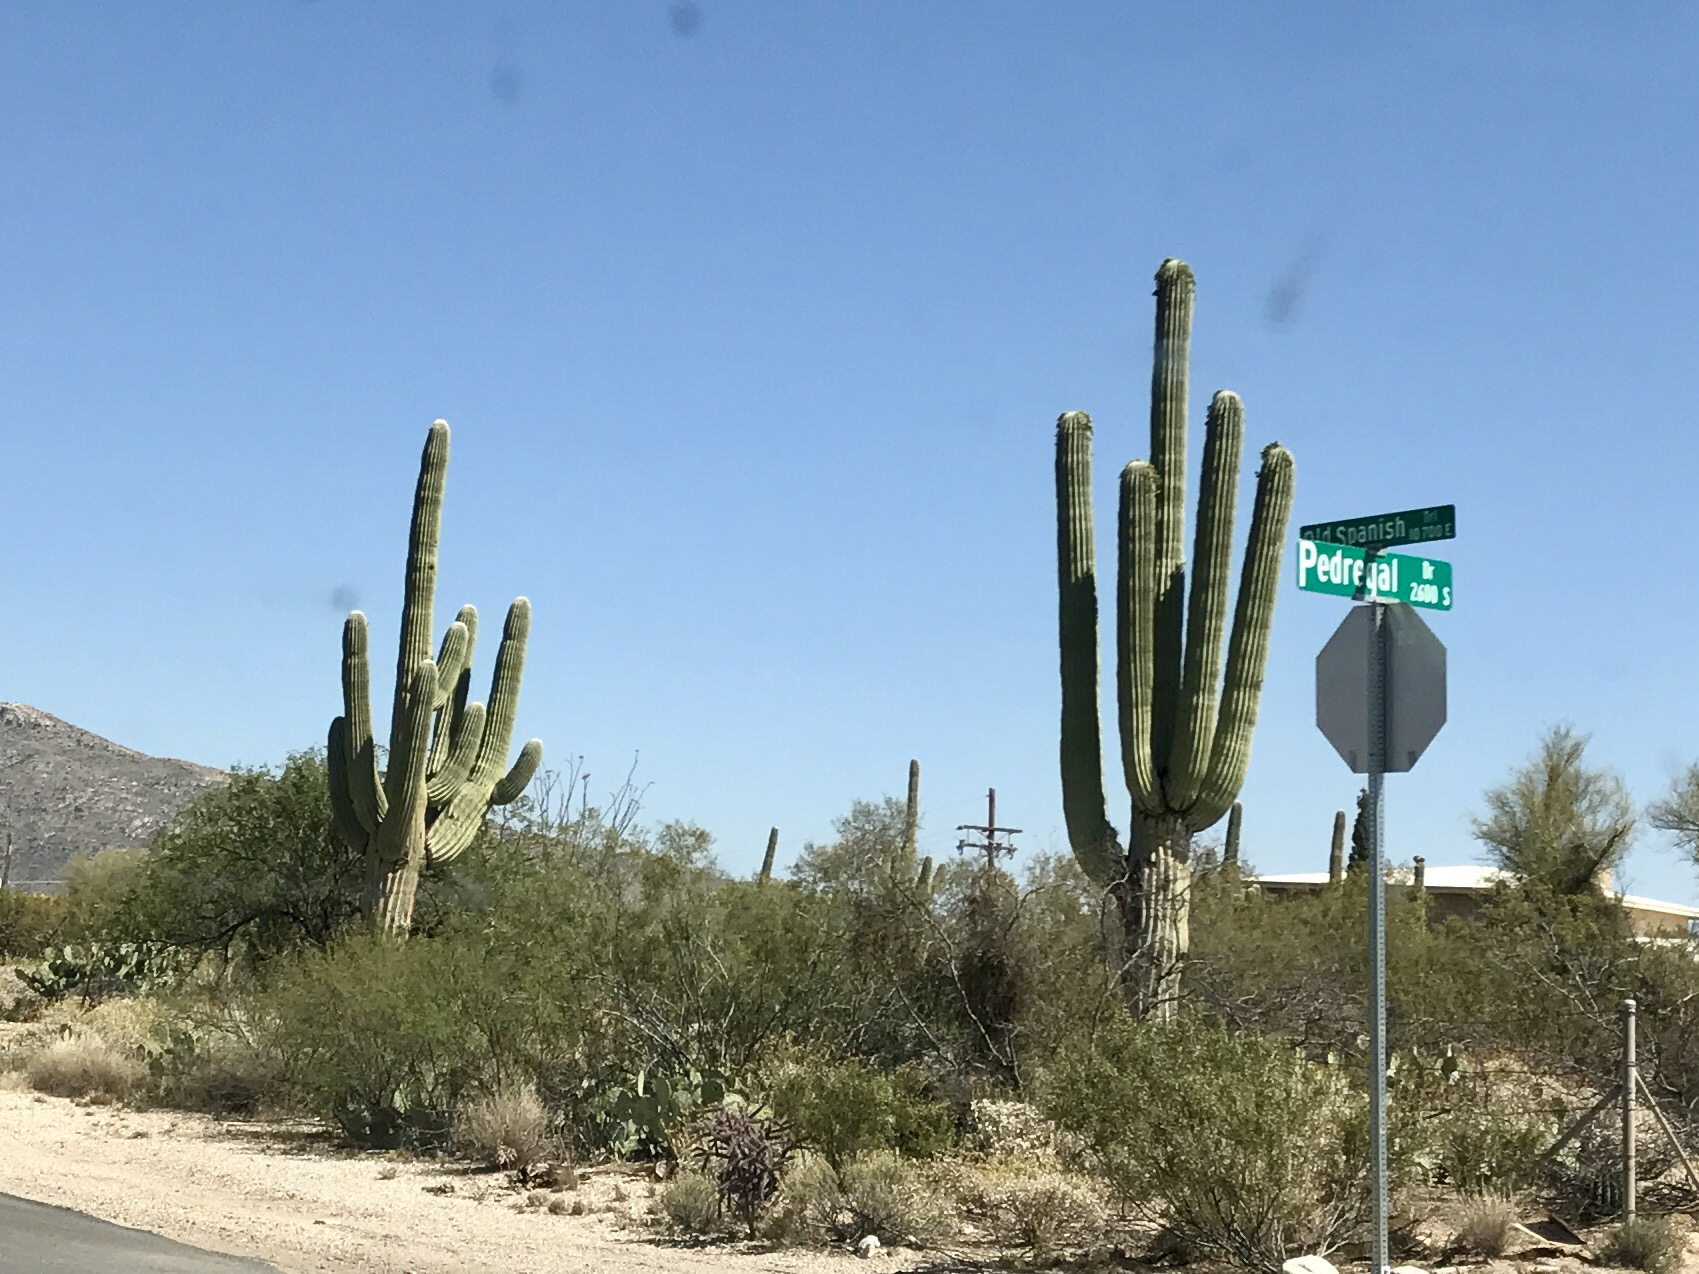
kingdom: Plantae
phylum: Tracheophyta
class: Magnoliopsida
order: Caryophyllales
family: Cactaceae
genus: Carnegiea
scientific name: Carnegiea gigantea
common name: Saguaro
